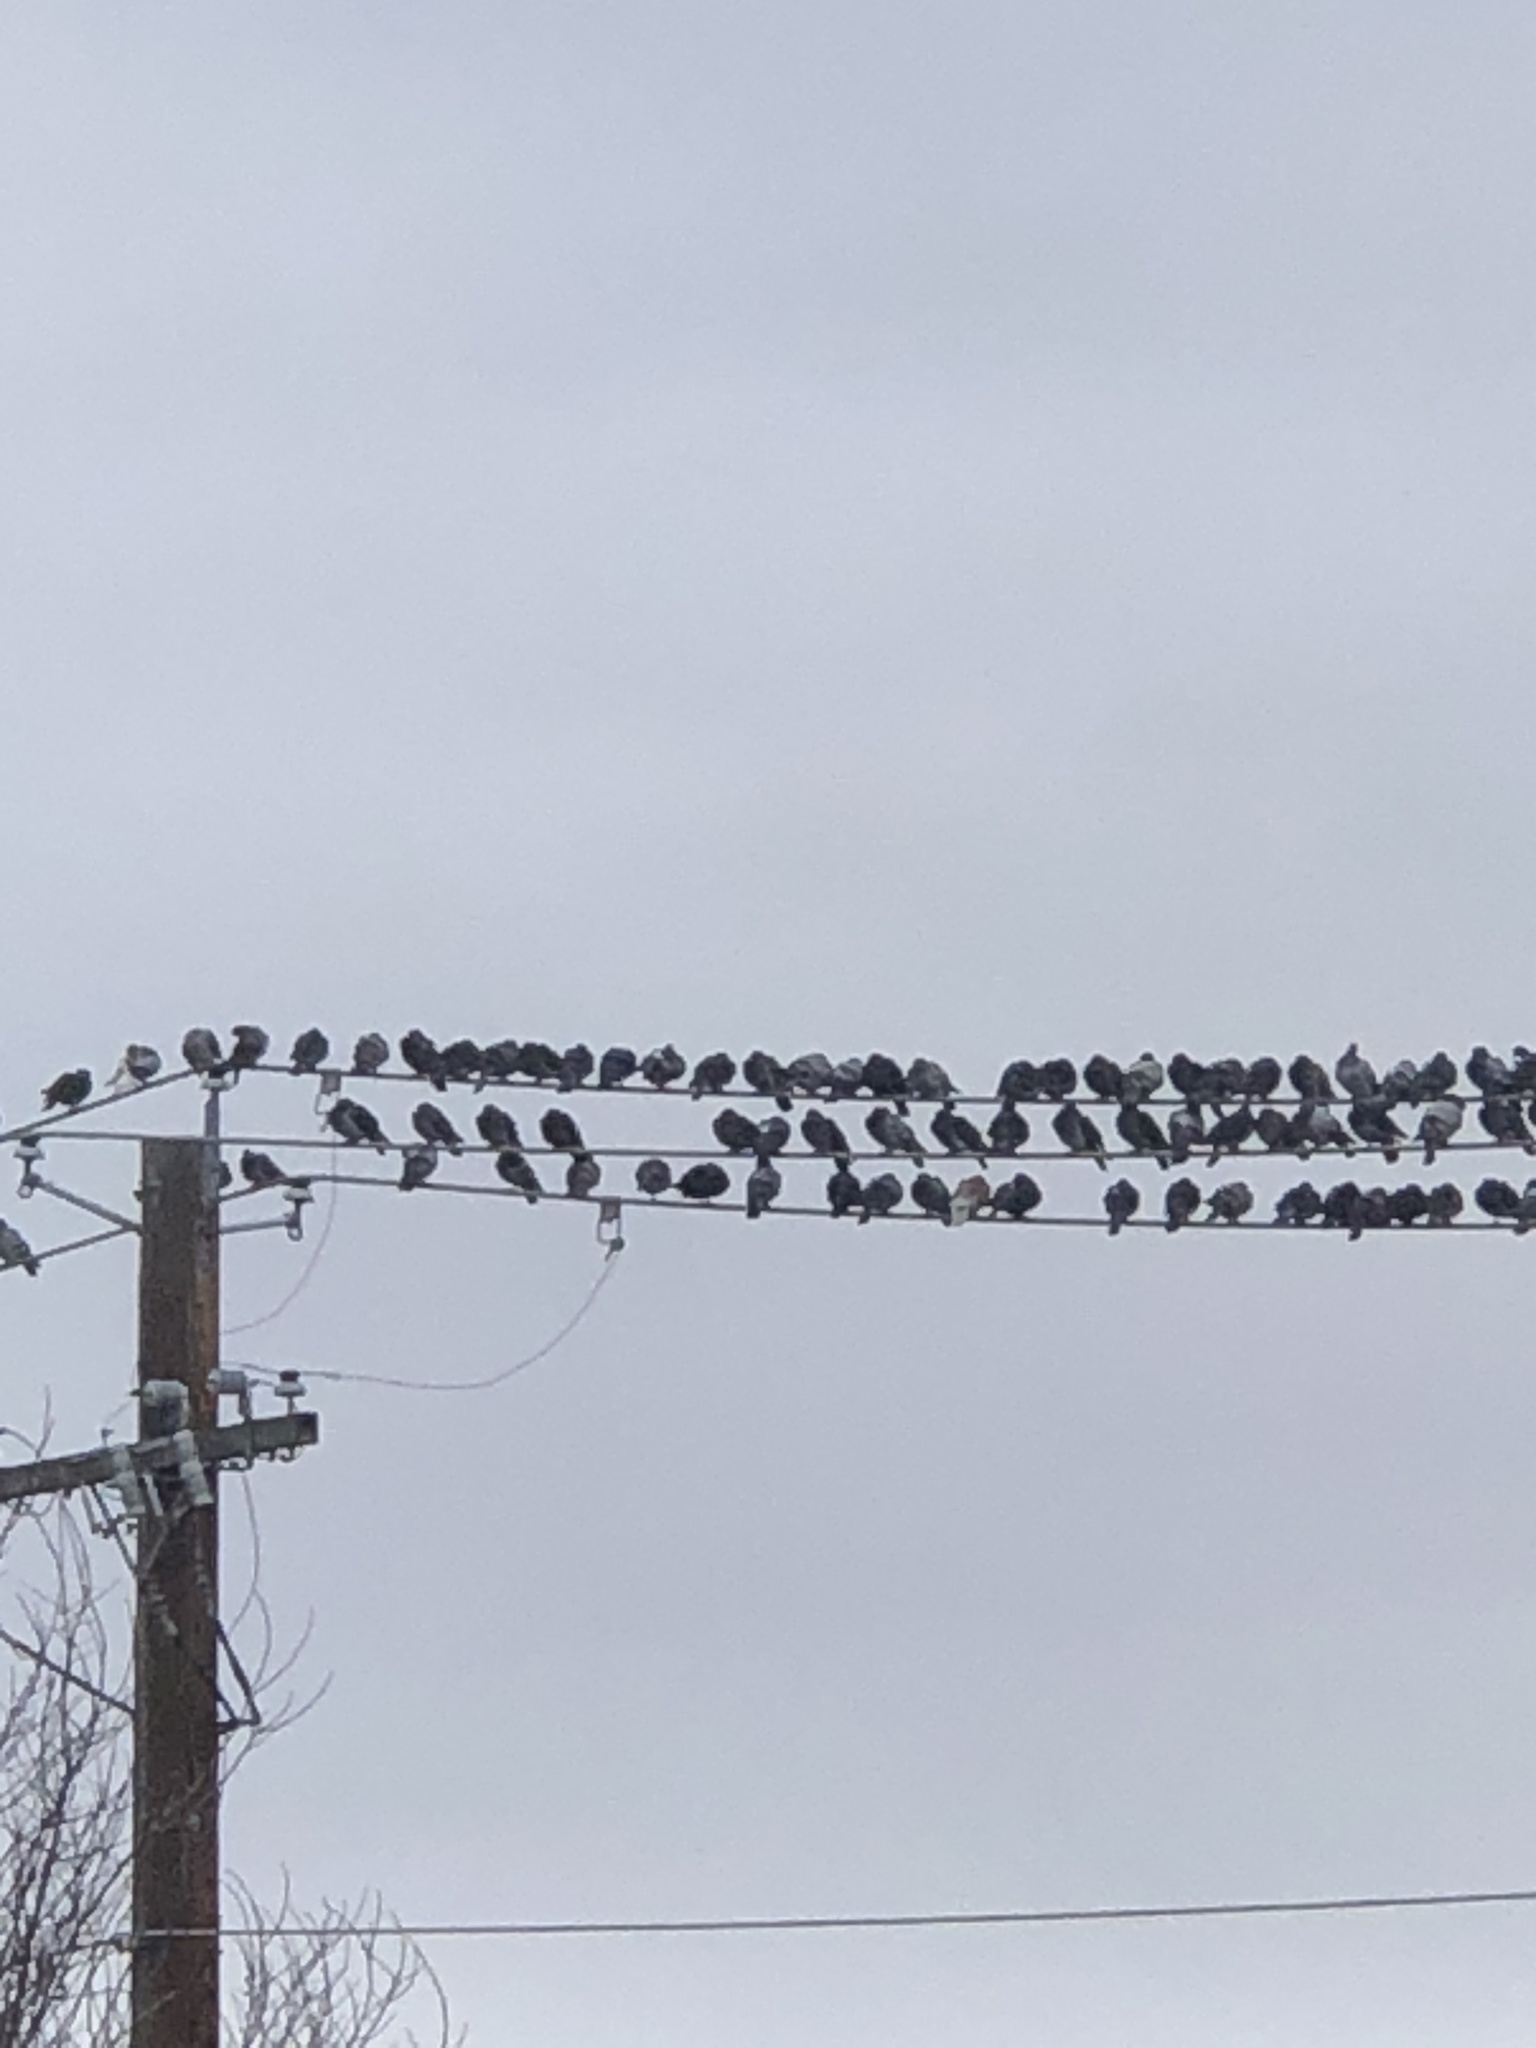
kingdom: Animalia
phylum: Chordata
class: Aves
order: Columbiformes
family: Columbidae
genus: Columba
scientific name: Columba livia
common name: Rock pigeon
